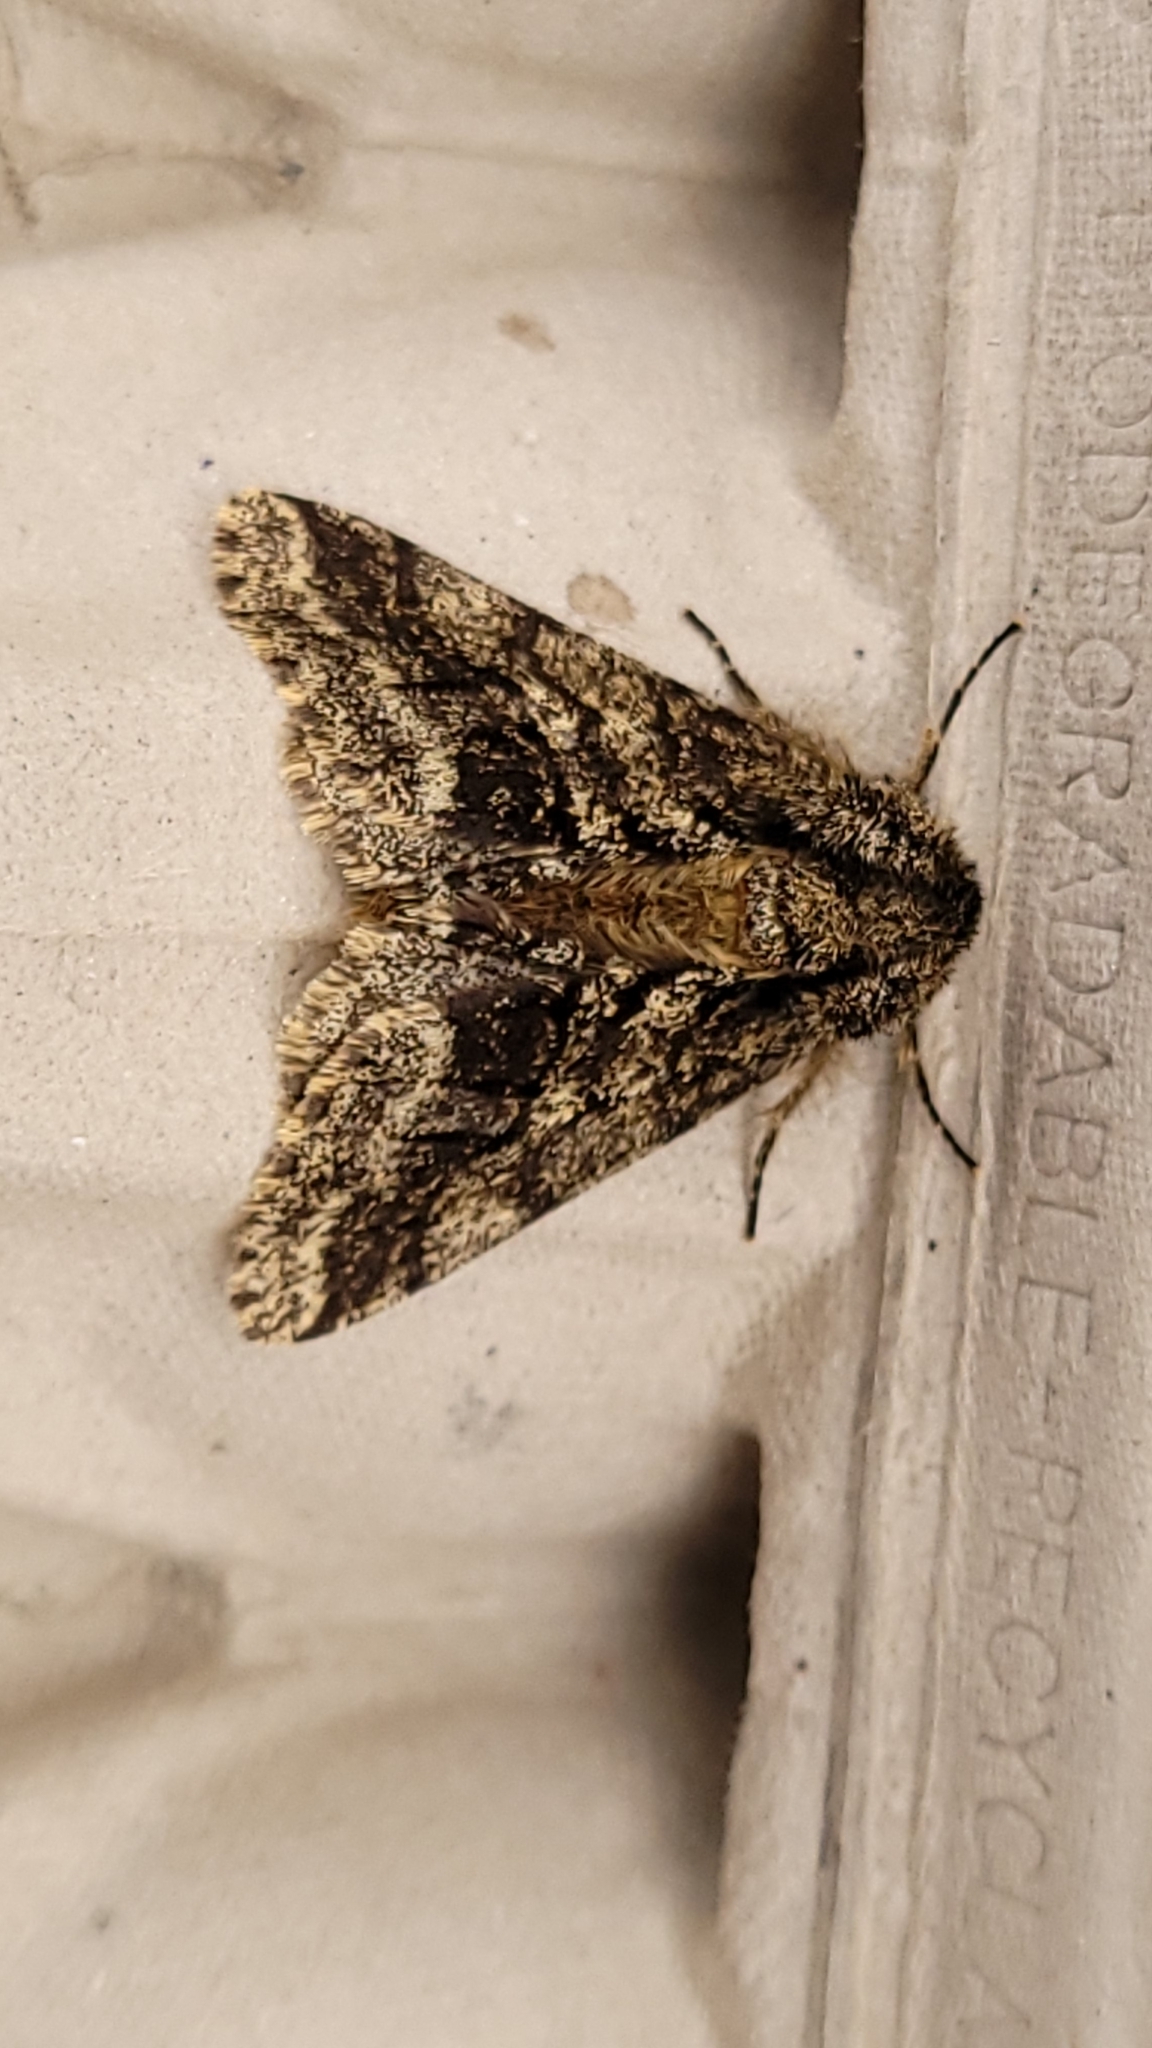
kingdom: Animalia
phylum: Arthropoda
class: Insecta
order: Lepidoptera
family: Geometridae
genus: Lycia
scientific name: Lycia hirtaria
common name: Brindled beauty
